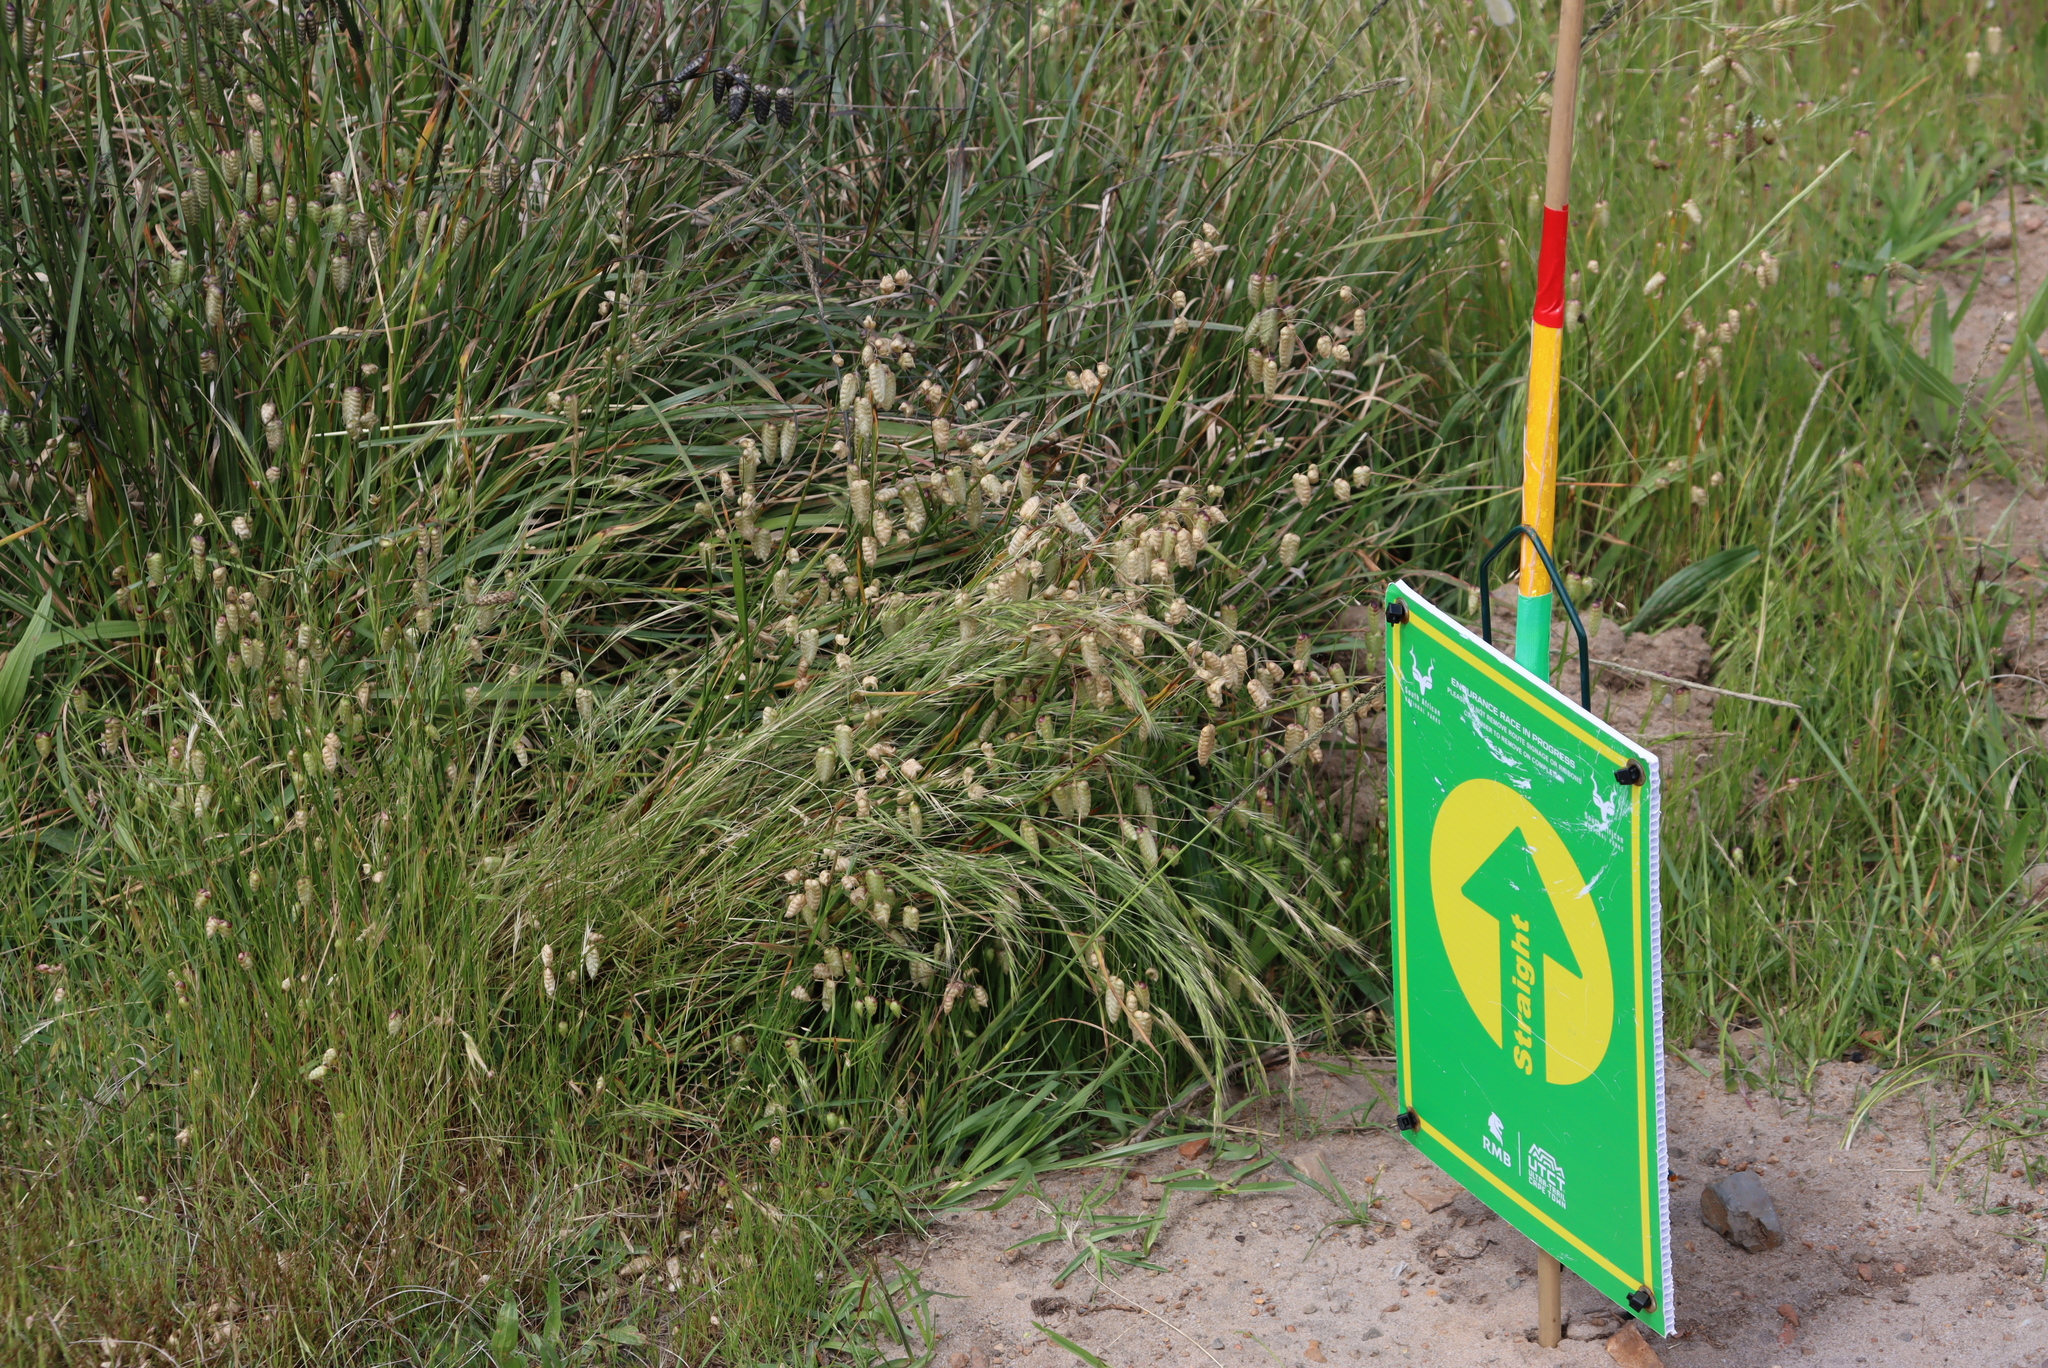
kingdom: Plantae
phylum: Tracheophyta
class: Liliopsida
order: Poales
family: Poaceae
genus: Briza
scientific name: Briza maxima
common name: Big quakinggrass
